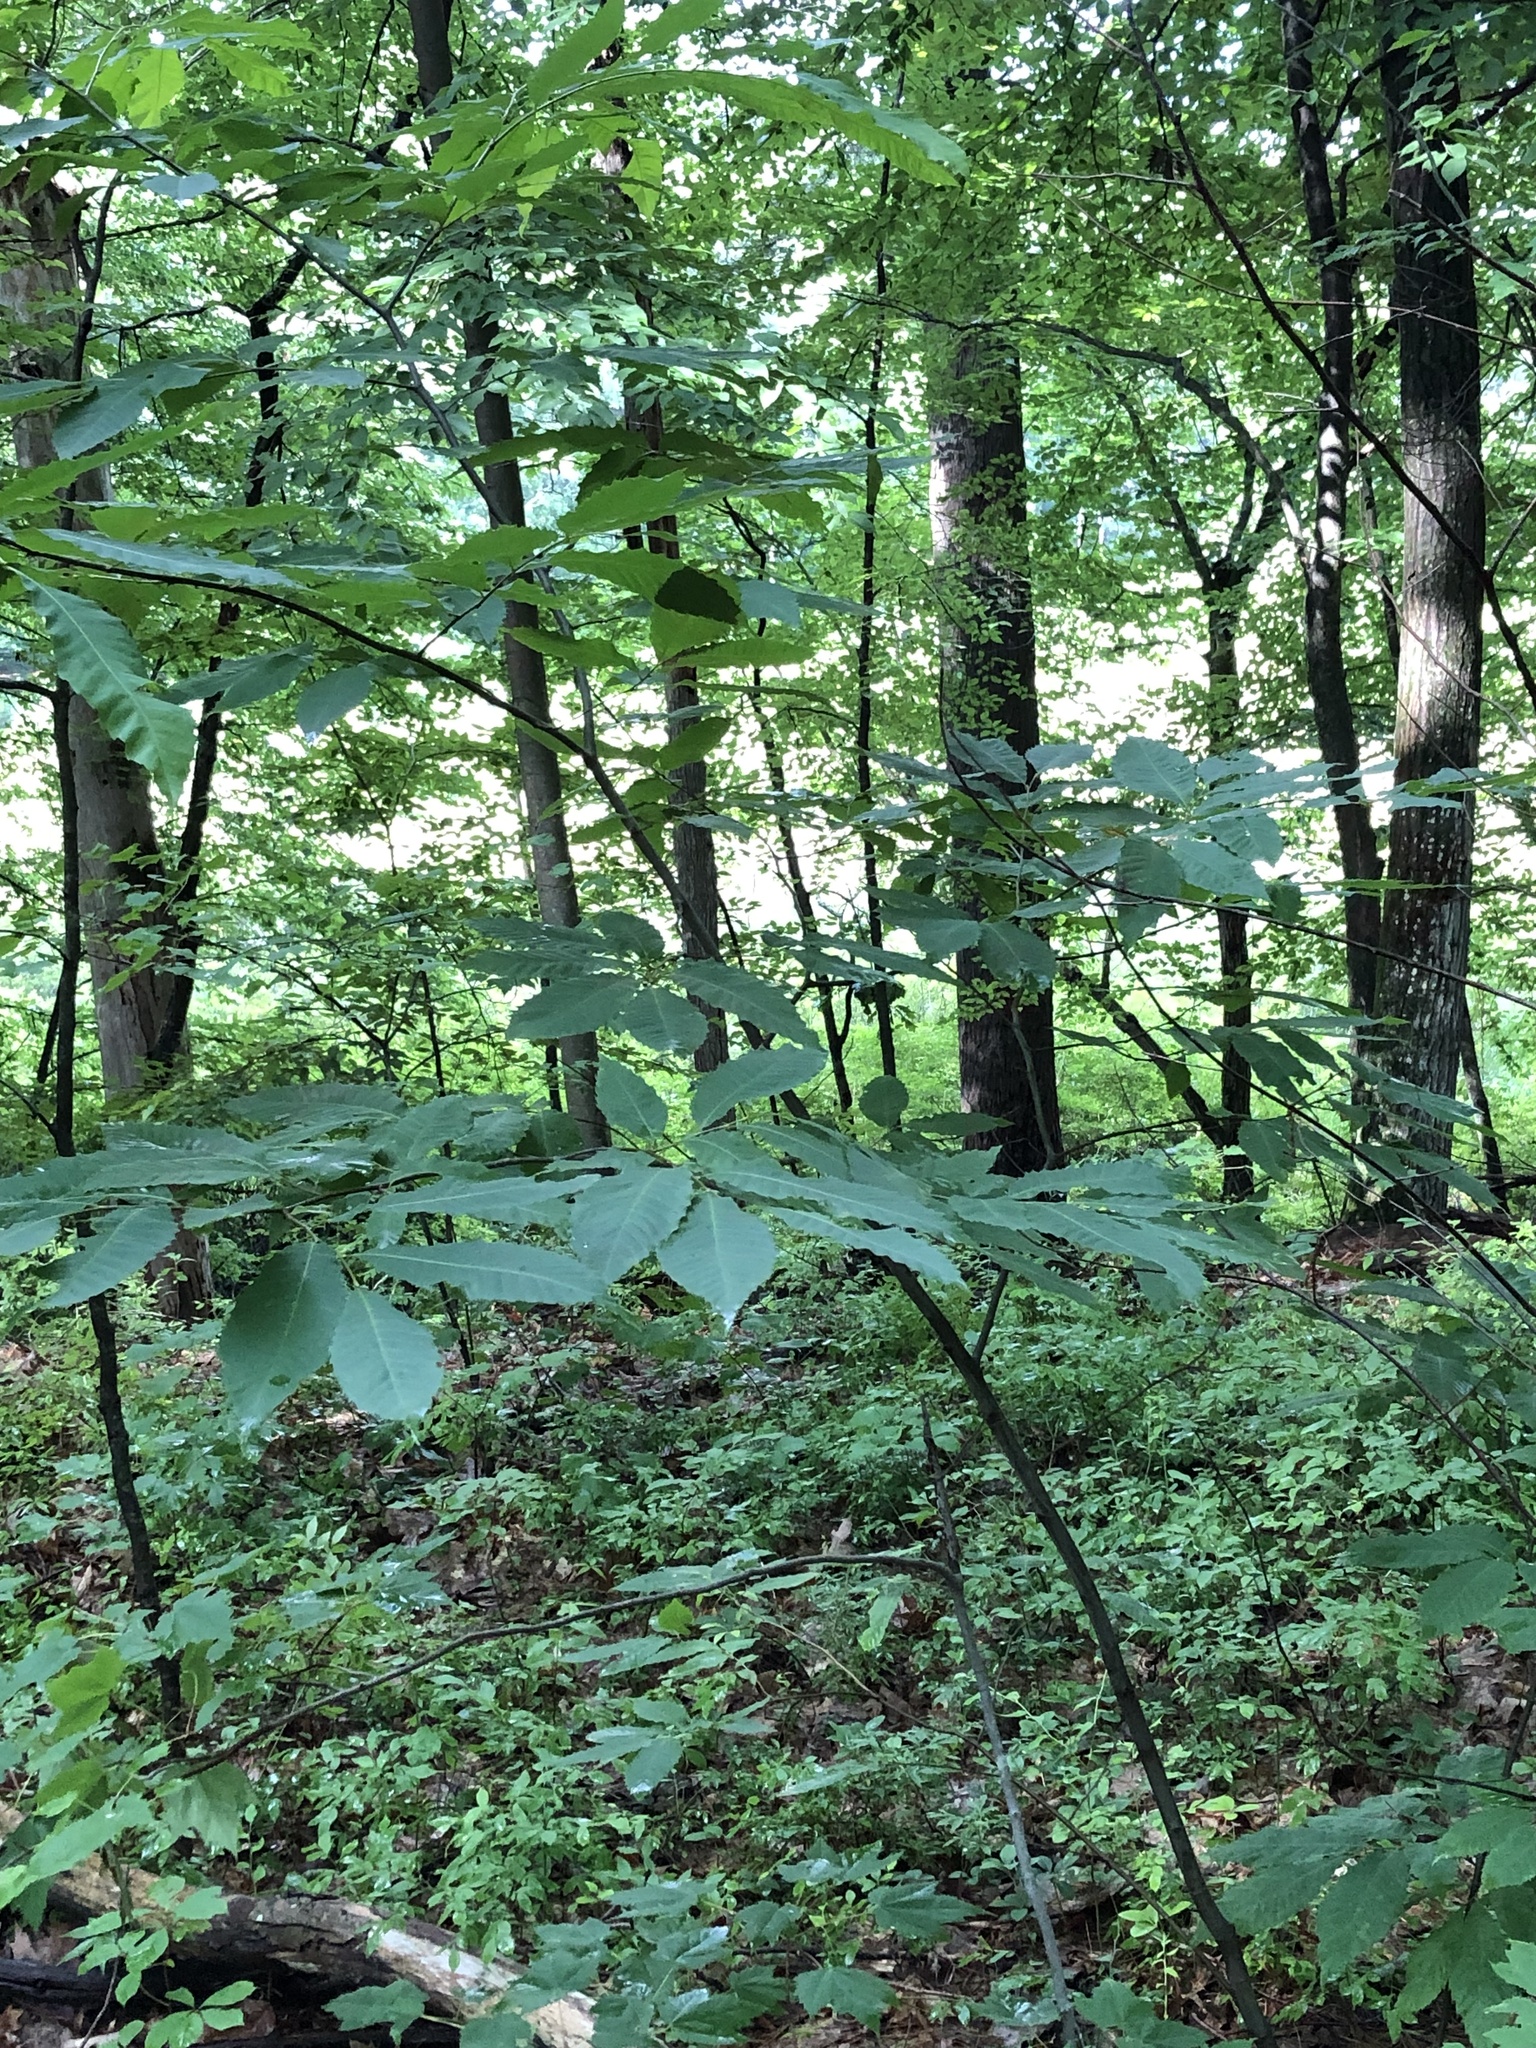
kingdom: Plantae
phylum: Tracheophyta
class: Magnoliopsida
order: Fagales
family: Fagaceae
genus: Castanea
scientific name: Castanea dentata
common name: American chestnut
